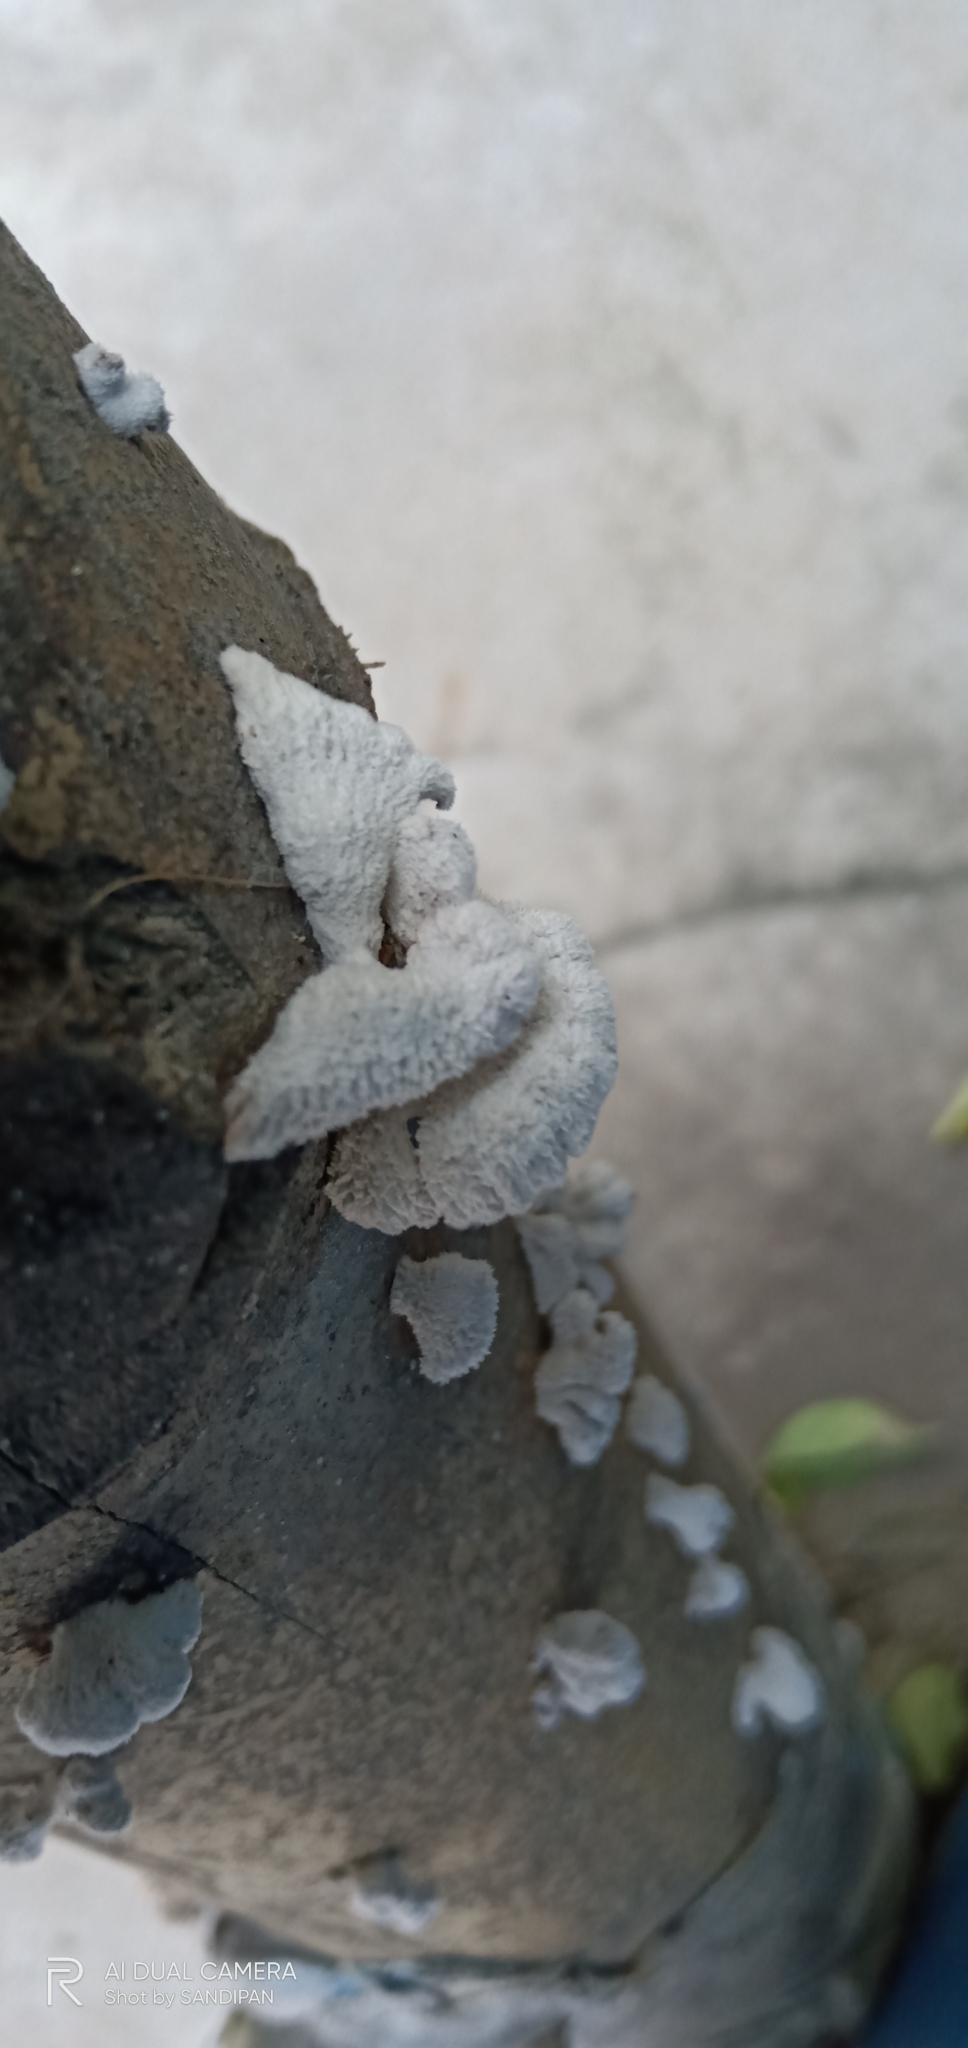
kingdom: Fungi
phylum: Basidiomycota
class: Agaricomycetes
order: Agaricales
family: Schizophyllaceae
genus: Schizophyllum
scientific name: Schizophyllum commune
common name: Common porecrust
